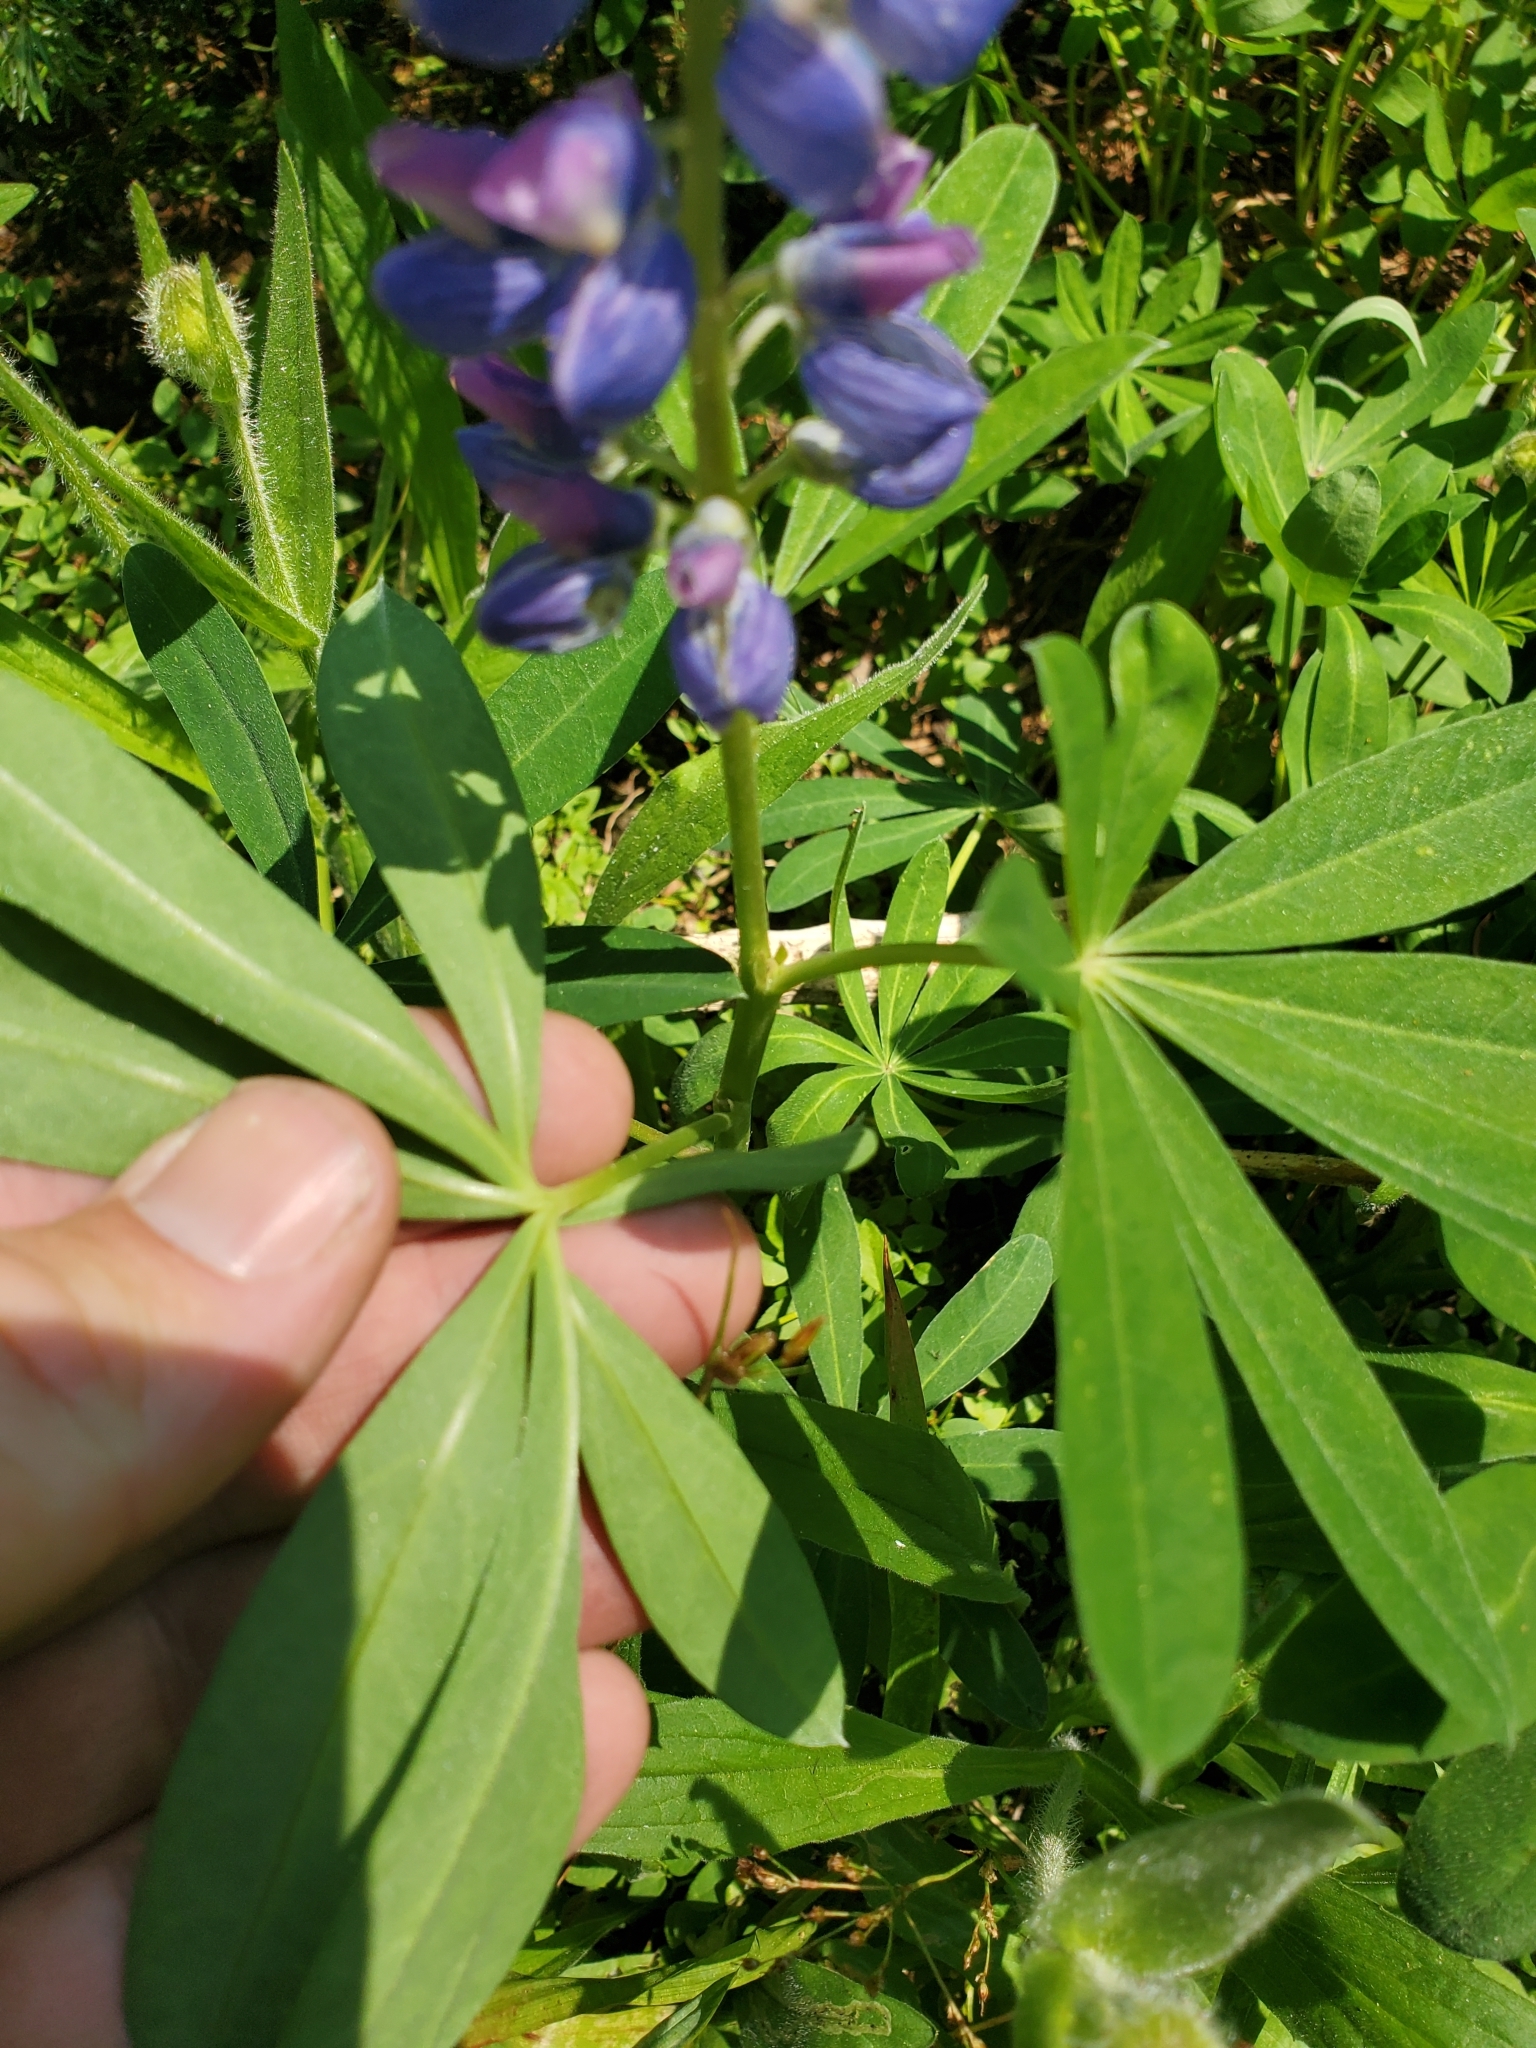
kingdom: Plantae
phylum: Tracheophyta
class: Magnoliopsida
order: Fabales
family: Fabaceae
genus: Lupinus
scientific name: Lupinus arcticus
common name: Arctic lupine
